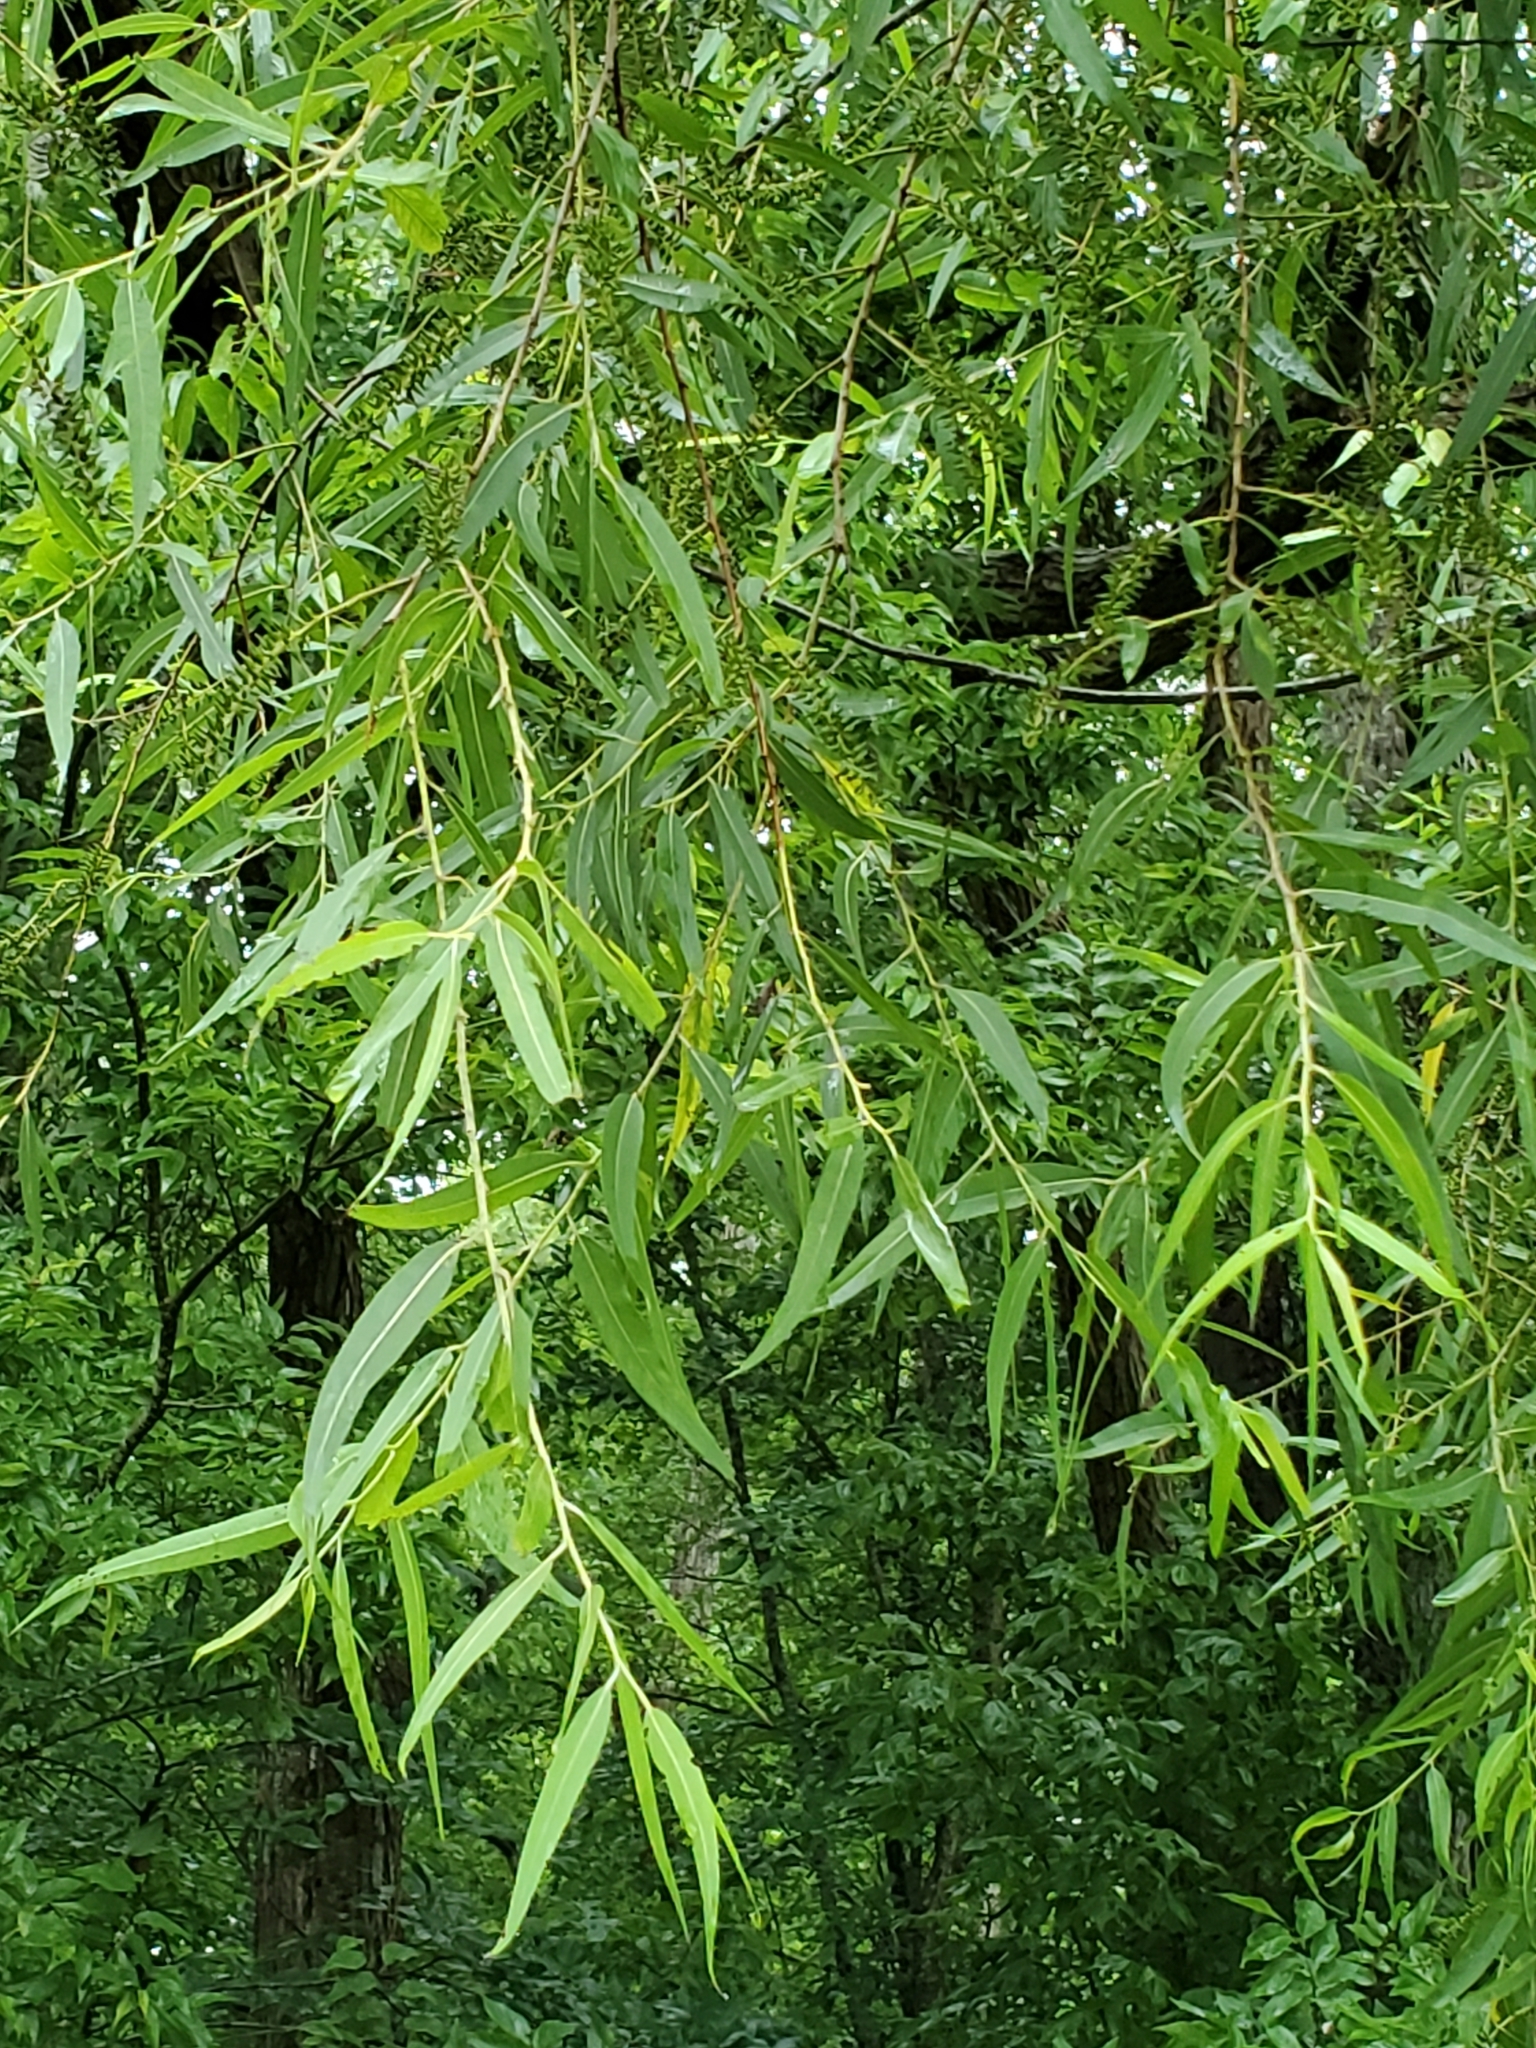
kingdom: Plantae
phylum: Tracheophyta
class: Magnoliopsida
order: Malpighiales
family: Salicaceae
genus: Salix
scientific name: Salix nigra
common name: Black willow
